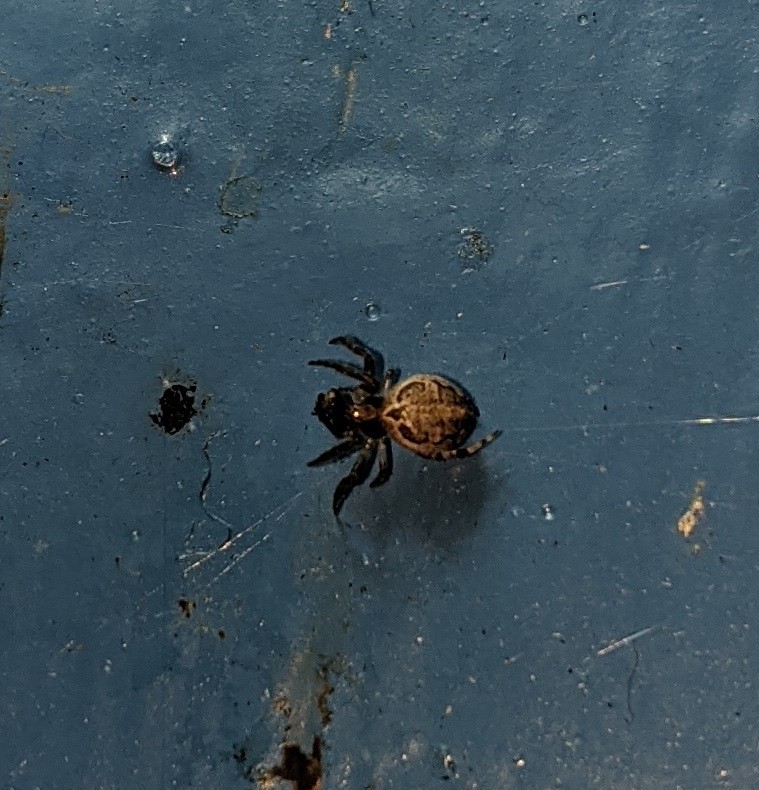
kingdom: Animalia
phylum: Arthropoda
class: Arachnida
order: Araneae
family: Araneidae
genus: Larinioides
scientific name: Larinioides sclopetarius
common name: Bridge orbweaver
